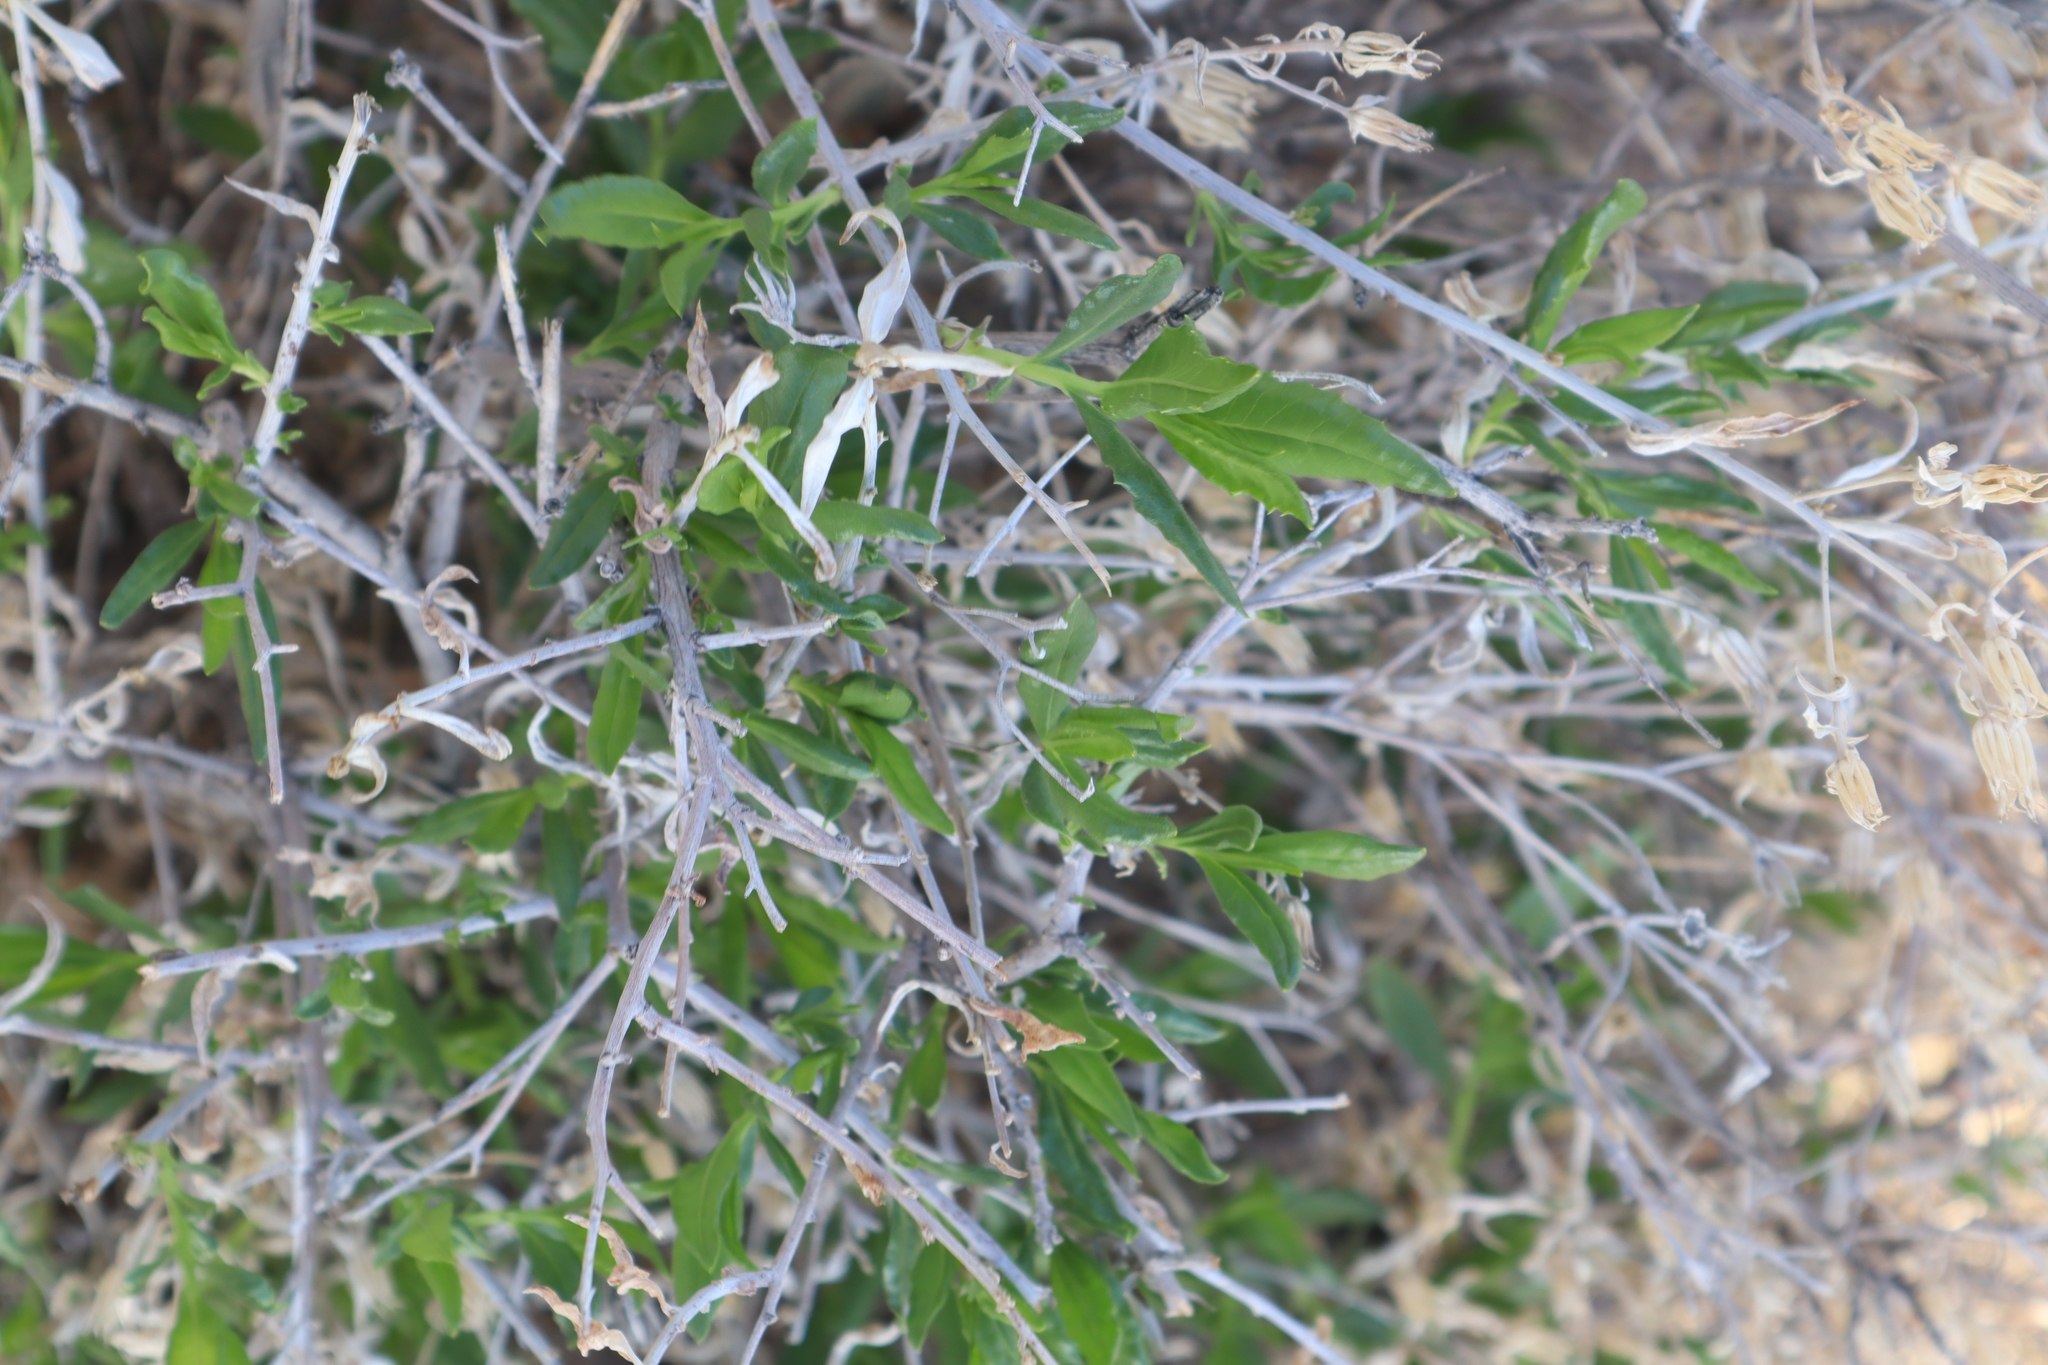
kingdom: Plantae
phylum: Tracheophyta
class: Magnoliopsida
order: Asterales
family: Asteraceae
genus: Trixis
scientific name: Trixis californica
